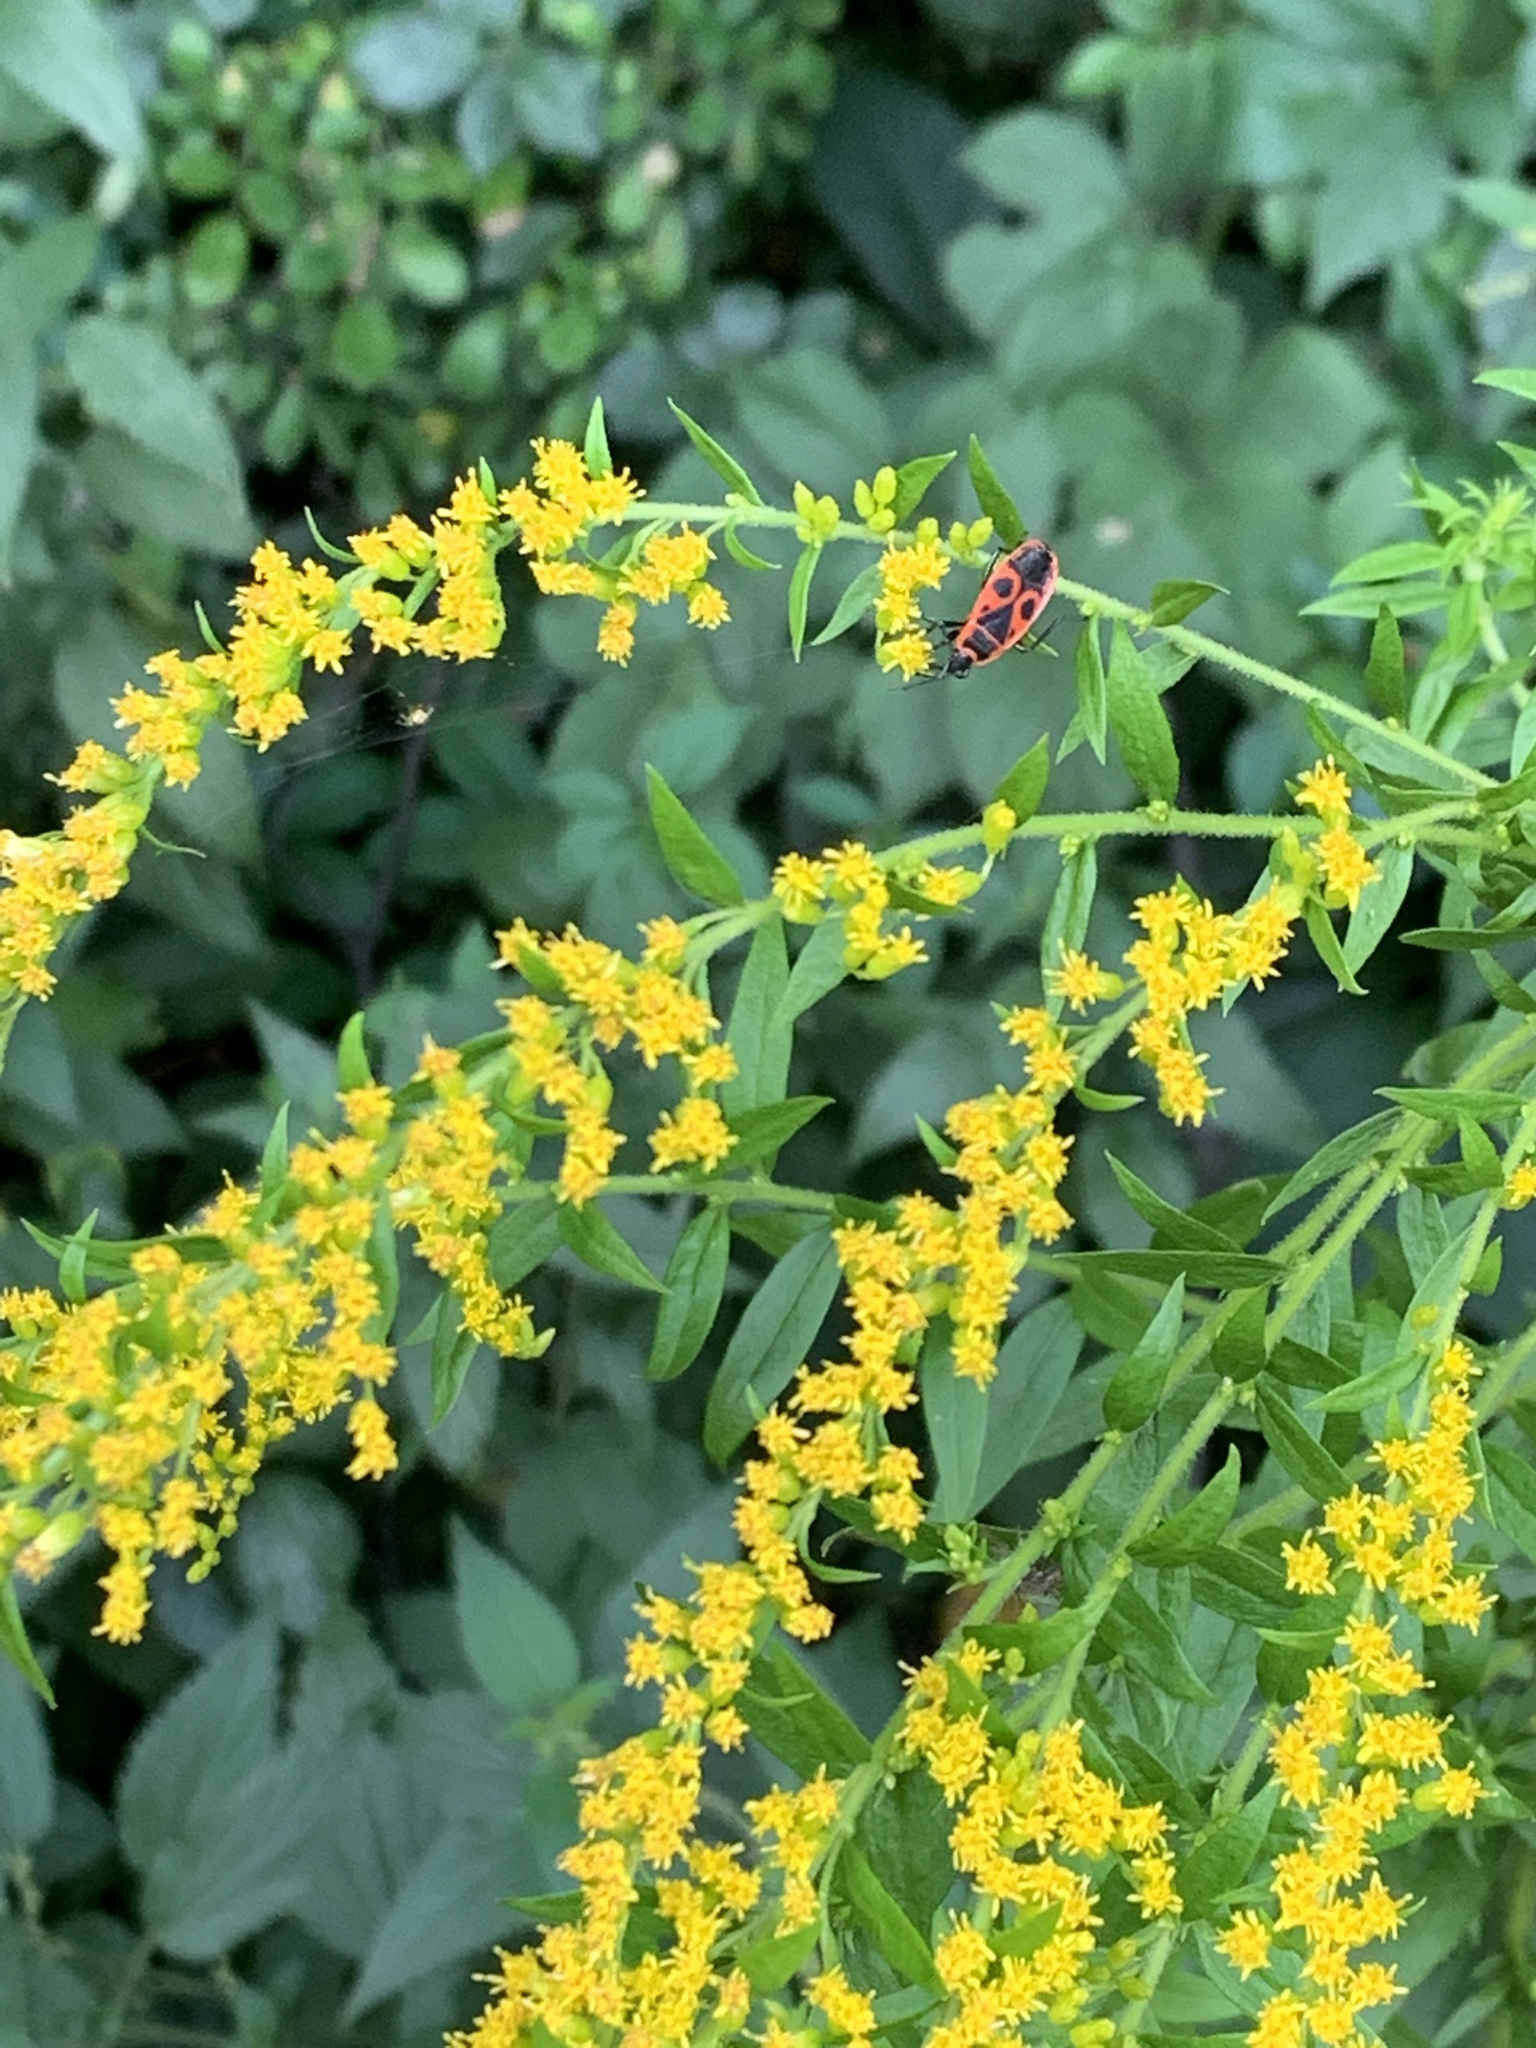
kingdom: Animalia
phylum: Arthropoda
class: Insecta
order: Hemiptera
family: Pyrrhocoridae
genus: Pyrrhocoris
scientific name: Pyrrhocoris apterus
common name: Firebug
